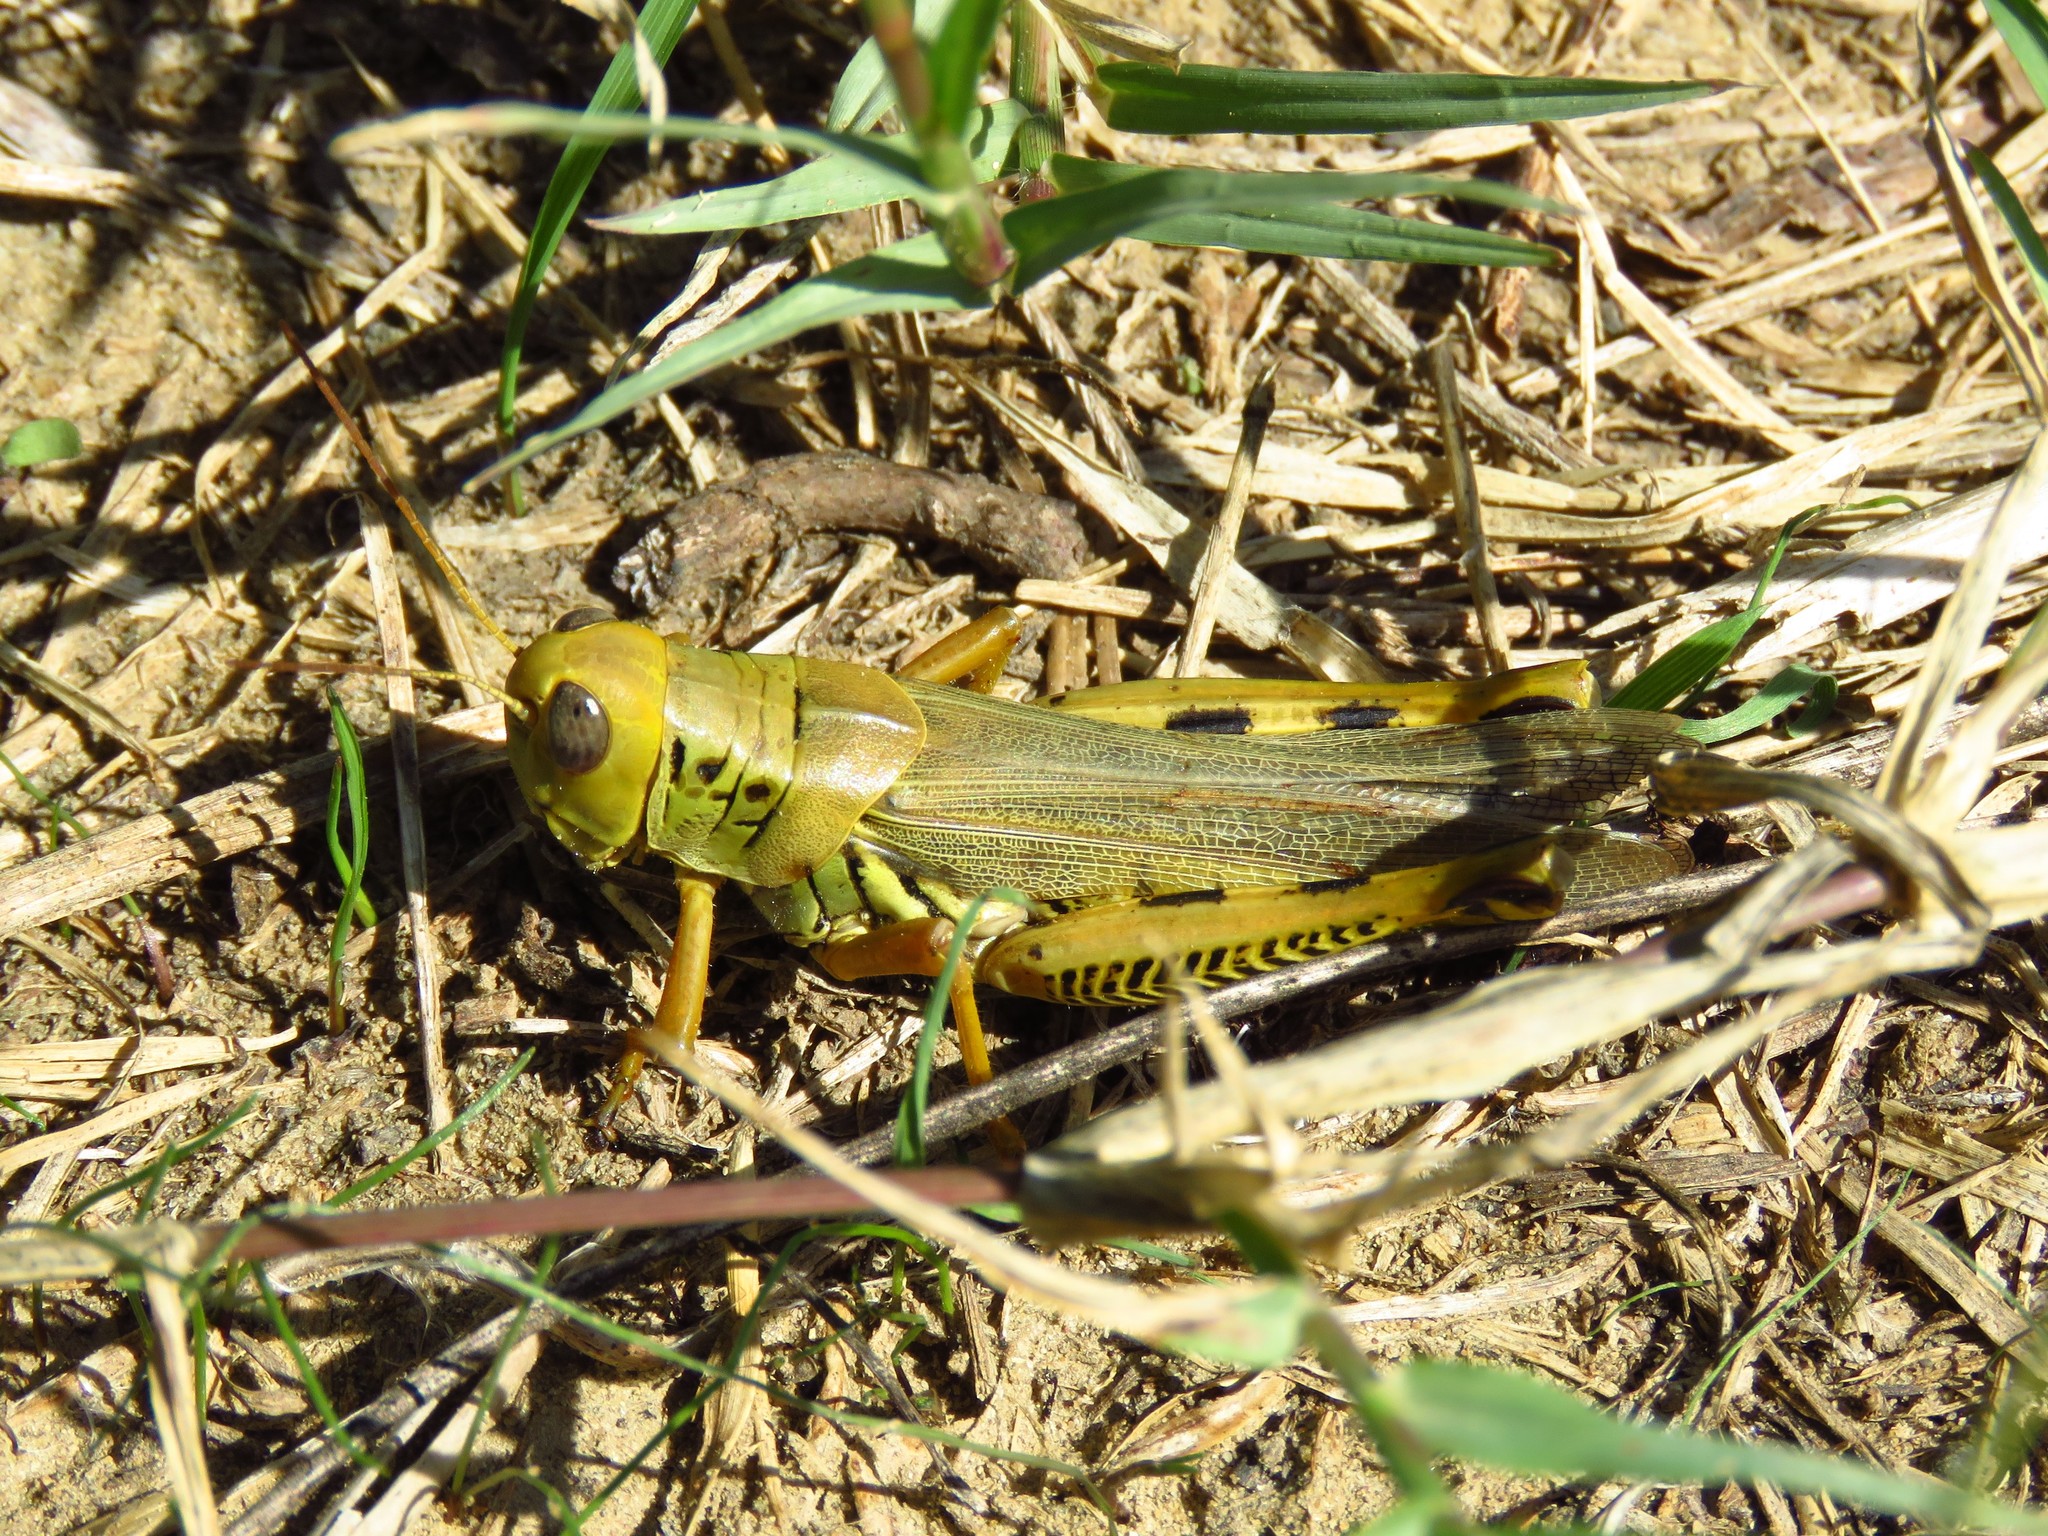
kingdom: Animalia
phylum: Arthropoda
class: Insecta
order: Orthoptera
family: Acrididae
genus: Melanoplus
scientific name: Melanoplus differentialis
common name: Differential grasshopper
